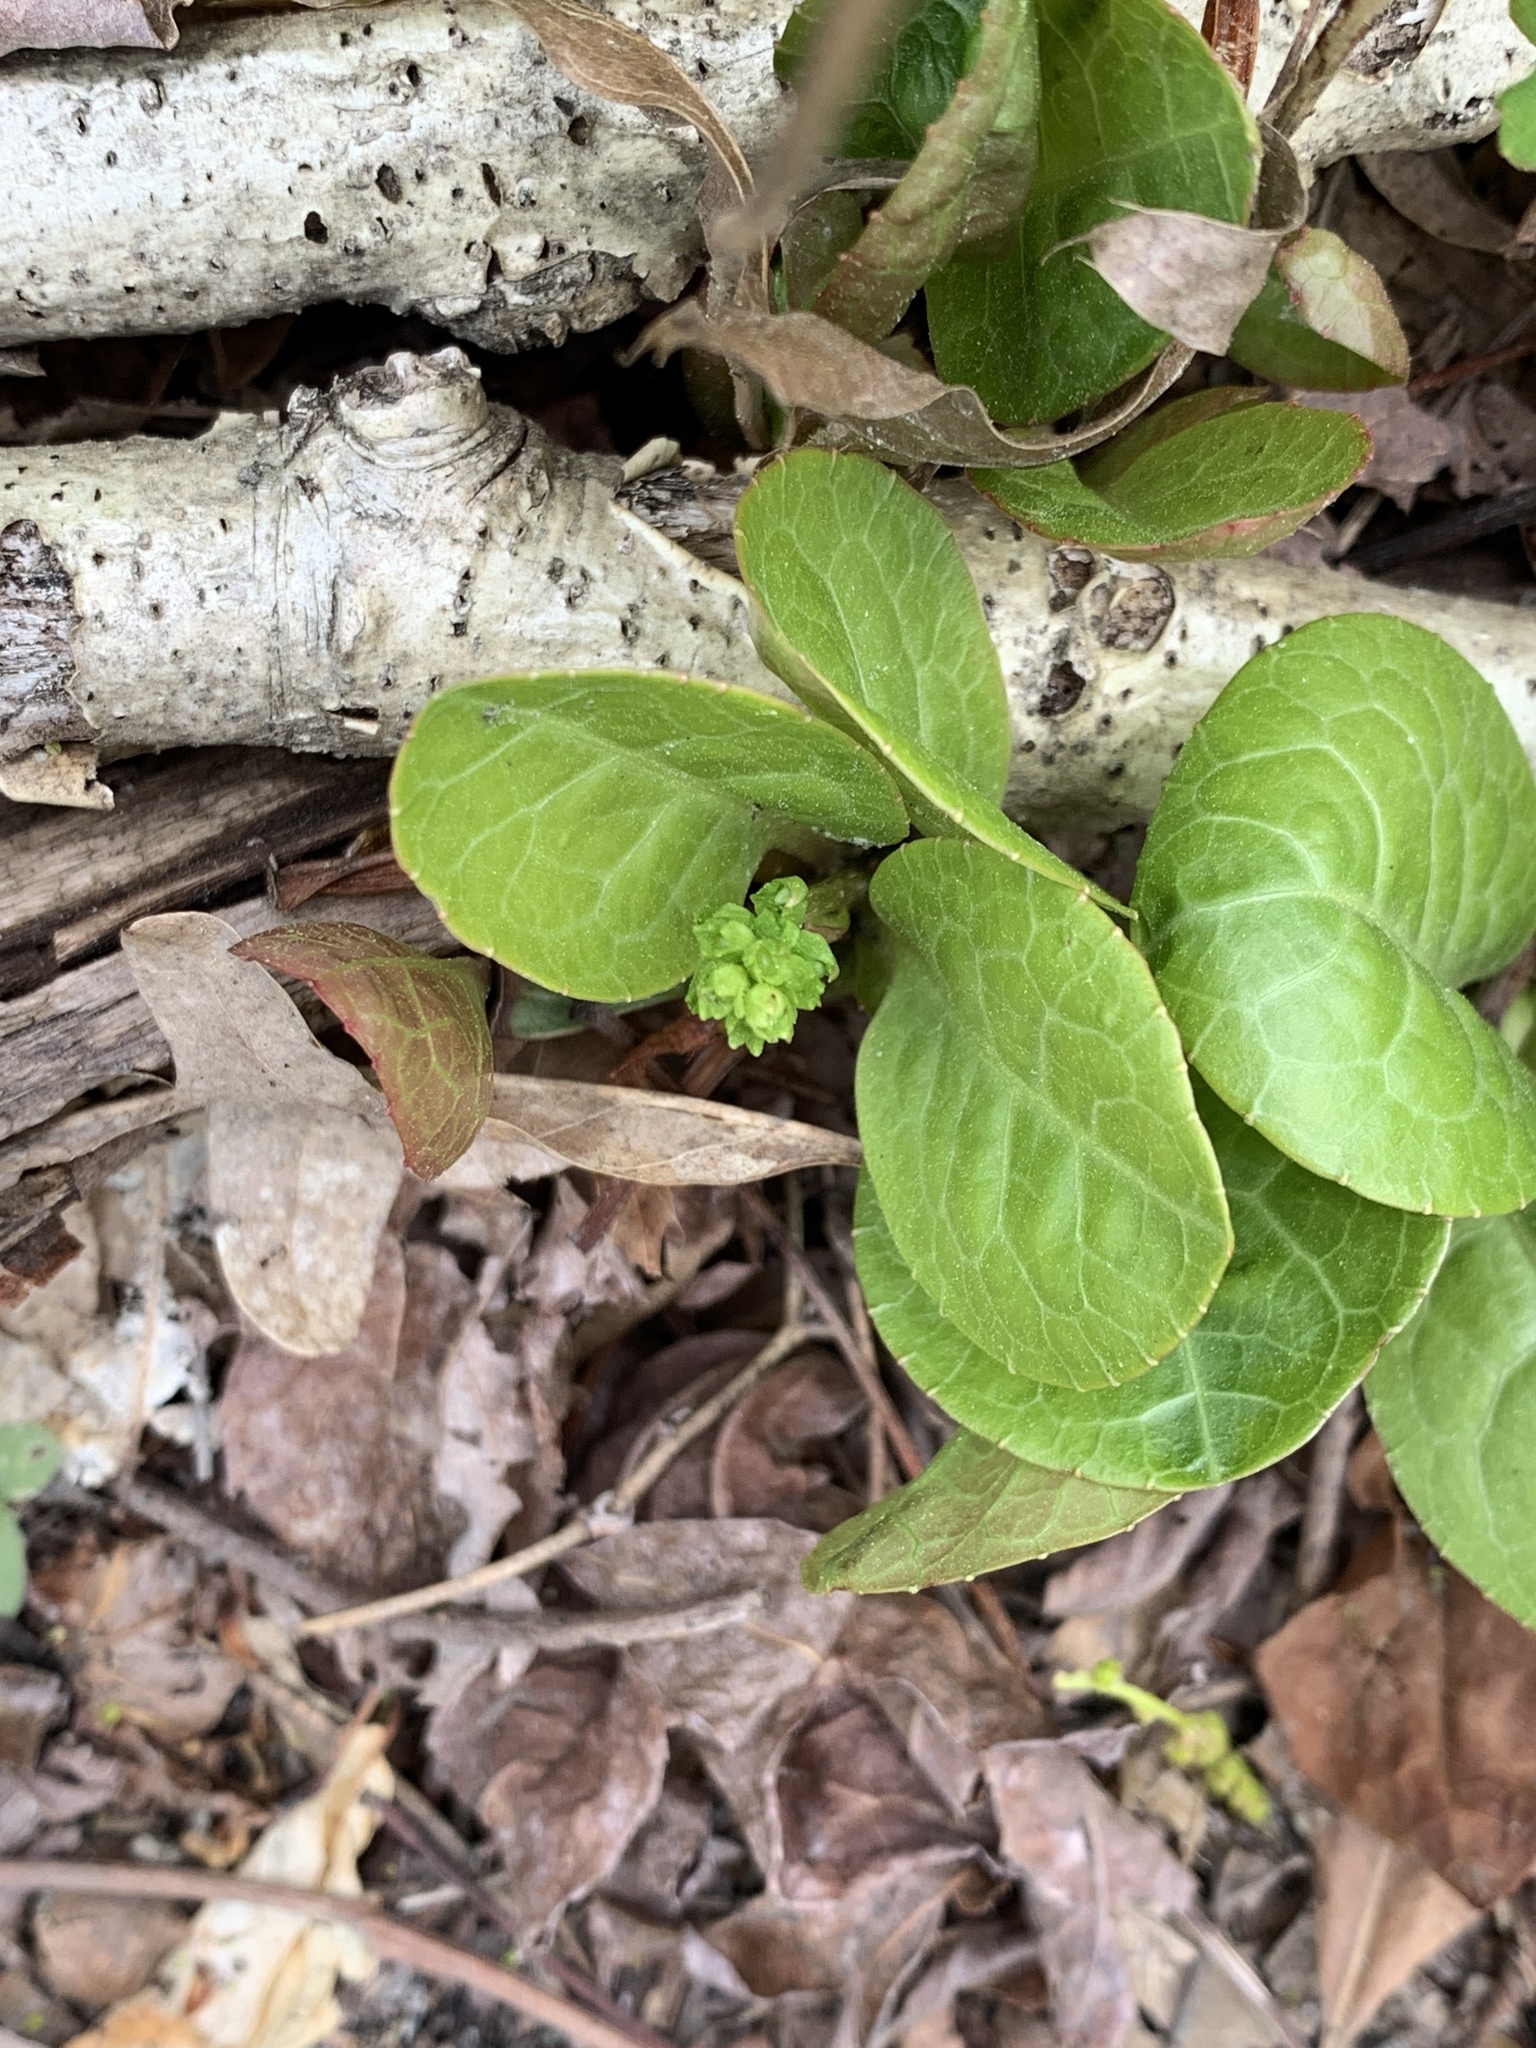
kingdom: Plantae
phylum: Tracheophyta
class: Magnoliopsida
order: Ericales
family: Ericaceae
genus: Pyrola
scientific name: Pyrola americana
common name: American wintergreen
